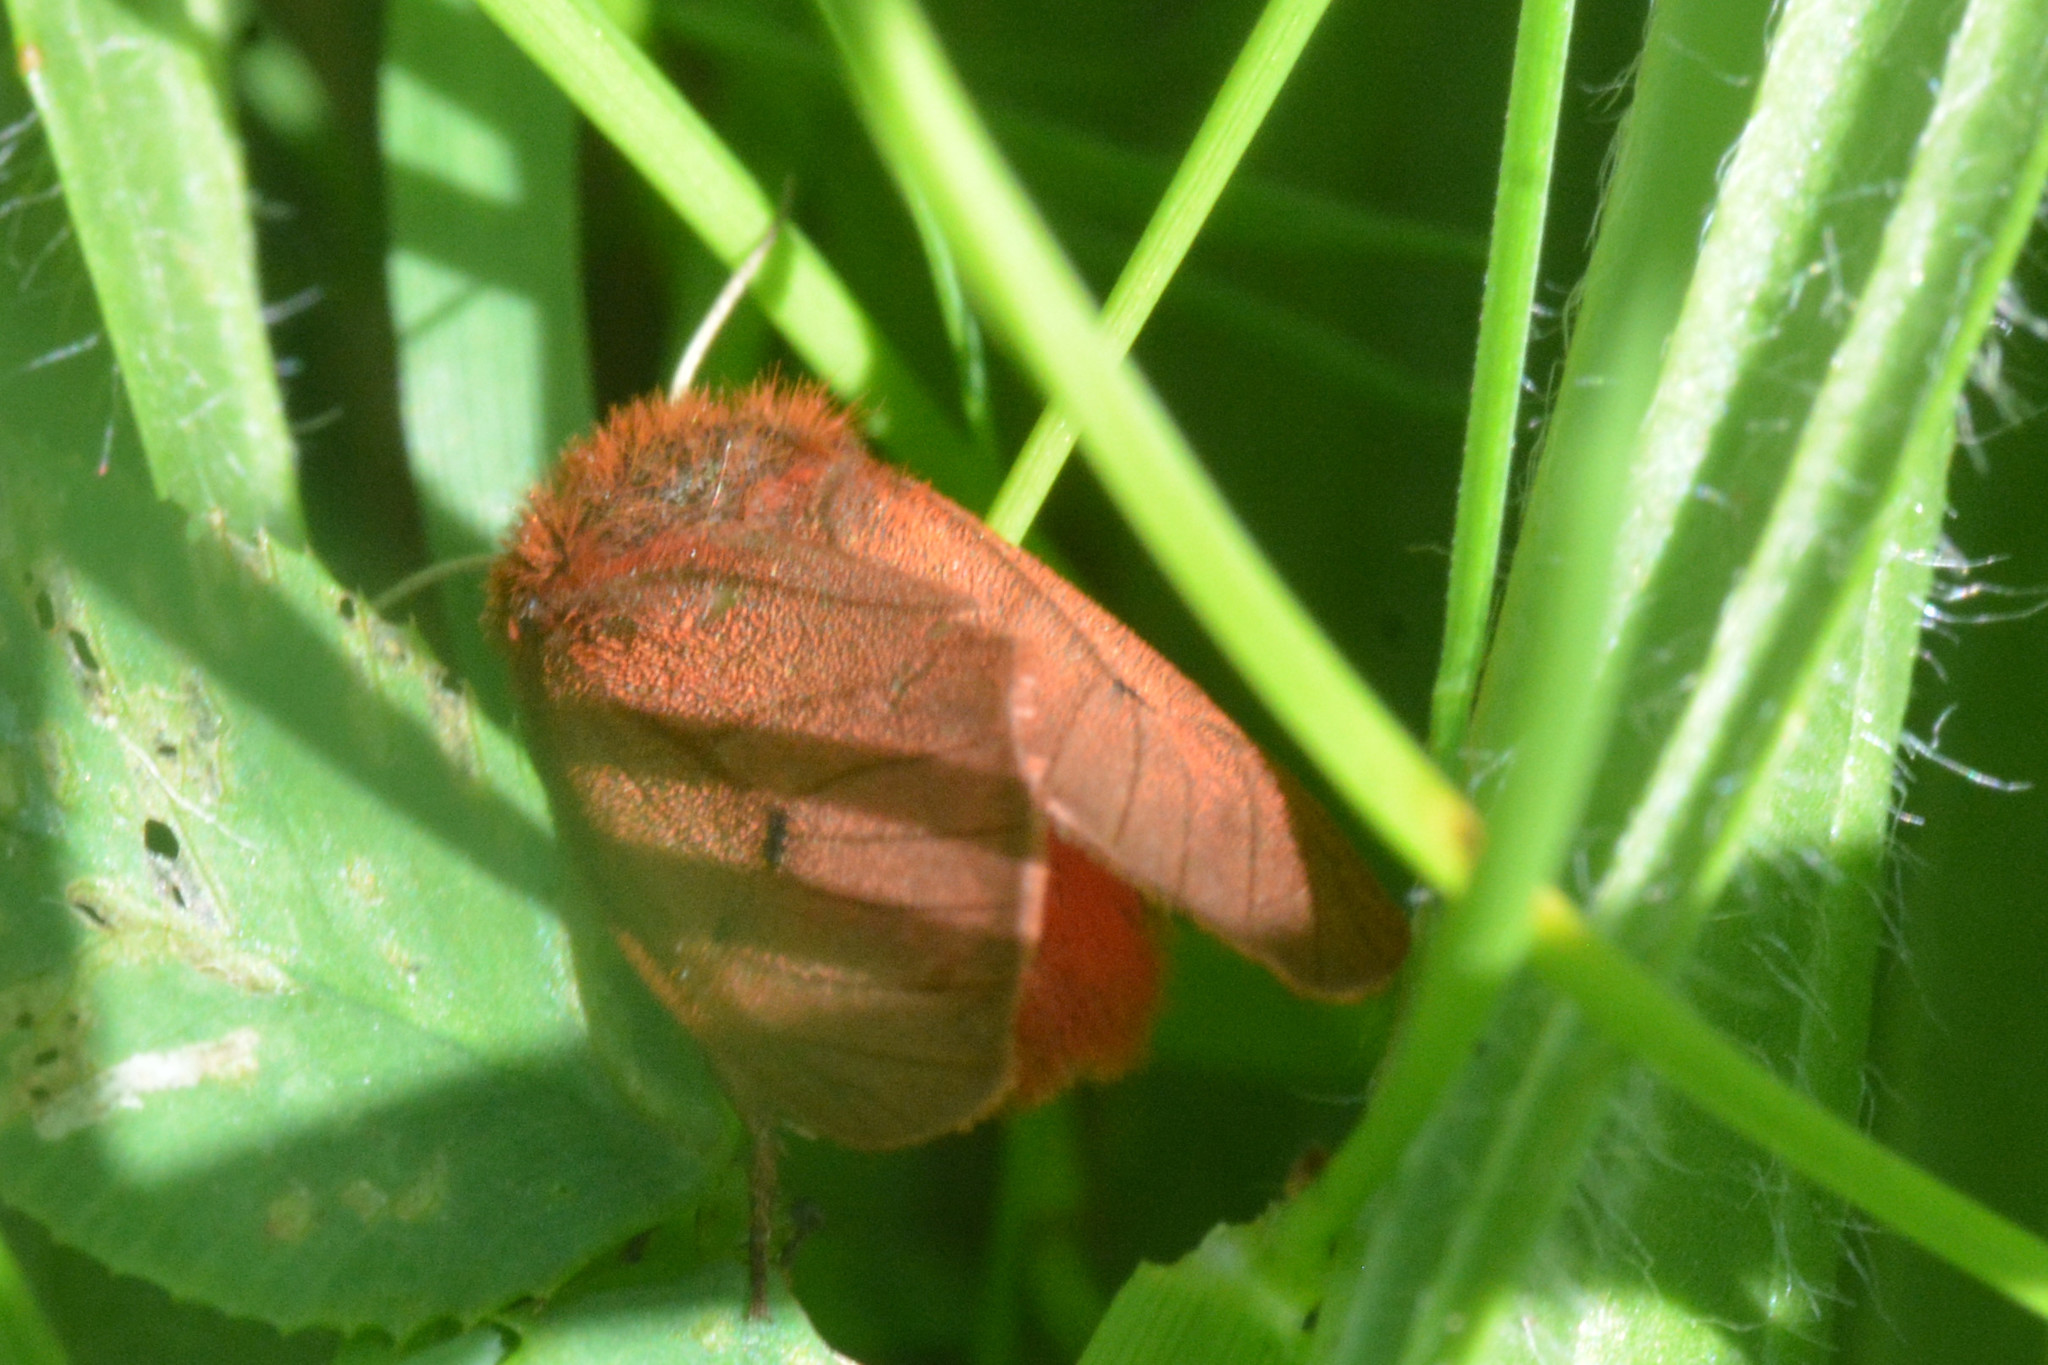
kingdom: Animalia
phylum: Arthropoda
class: Insecta
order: Lepidoptera
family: Erebidae
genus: Phragmatobia
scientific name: Phragmatobia fuliginosa
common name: Ruby tiger
